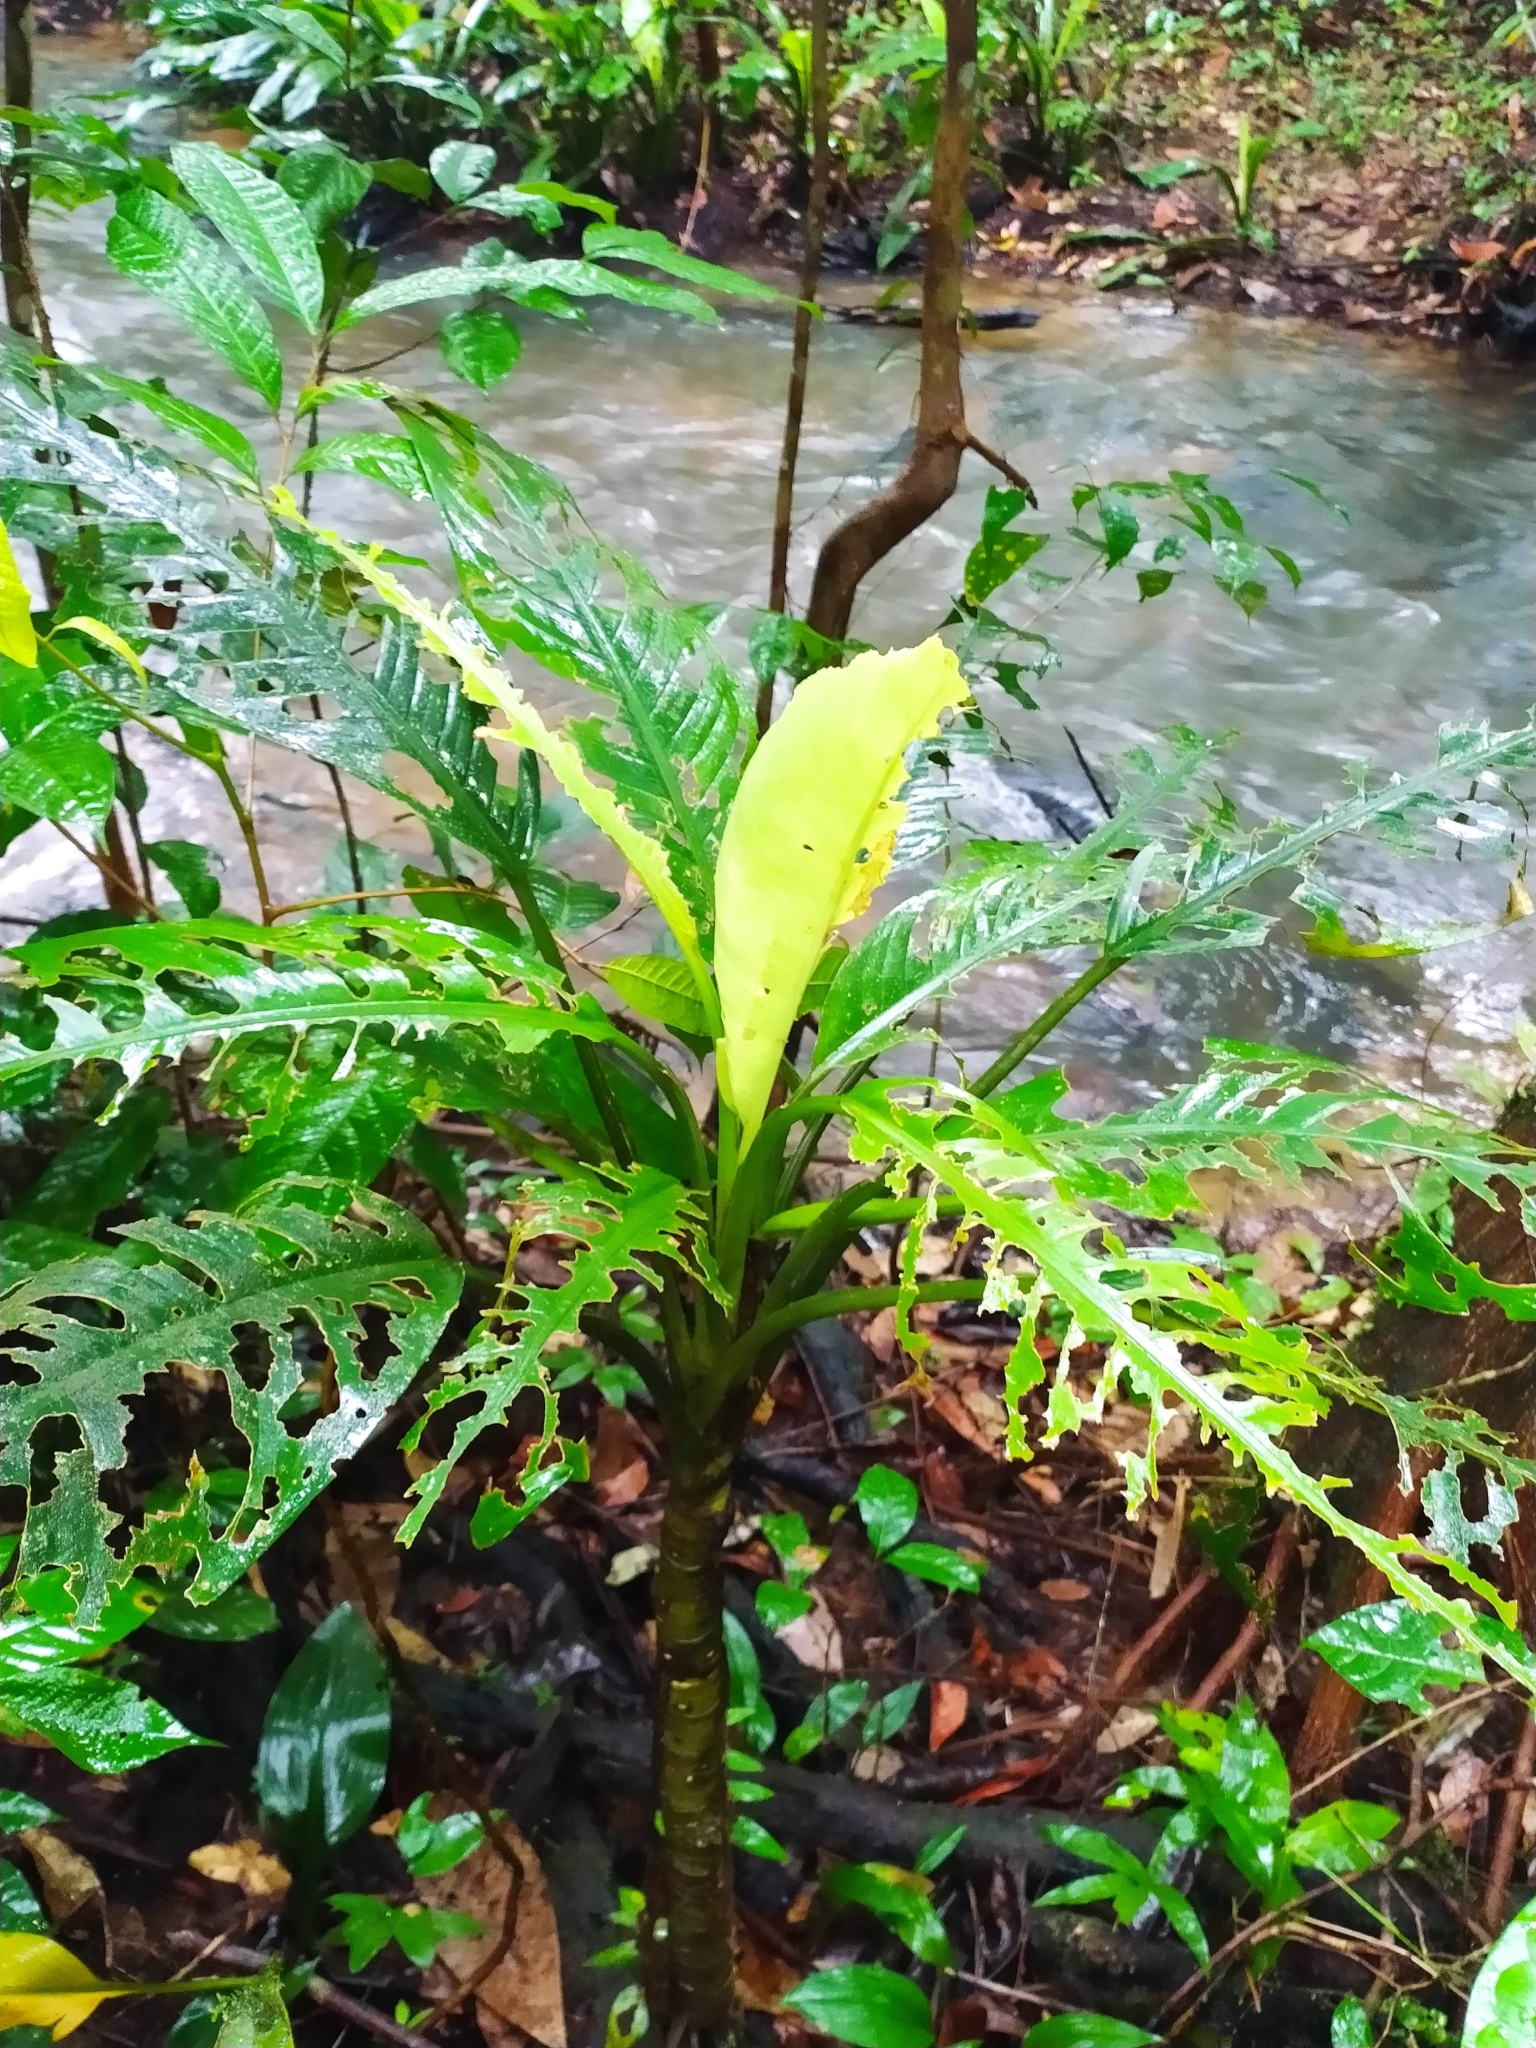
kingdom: Plantae
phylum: Tracheophyta
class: Liliopsida
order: Alismatales
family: Araceae
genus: Dieffenbachia
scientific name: Dieffenbachia seguine
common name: Dumbcane
